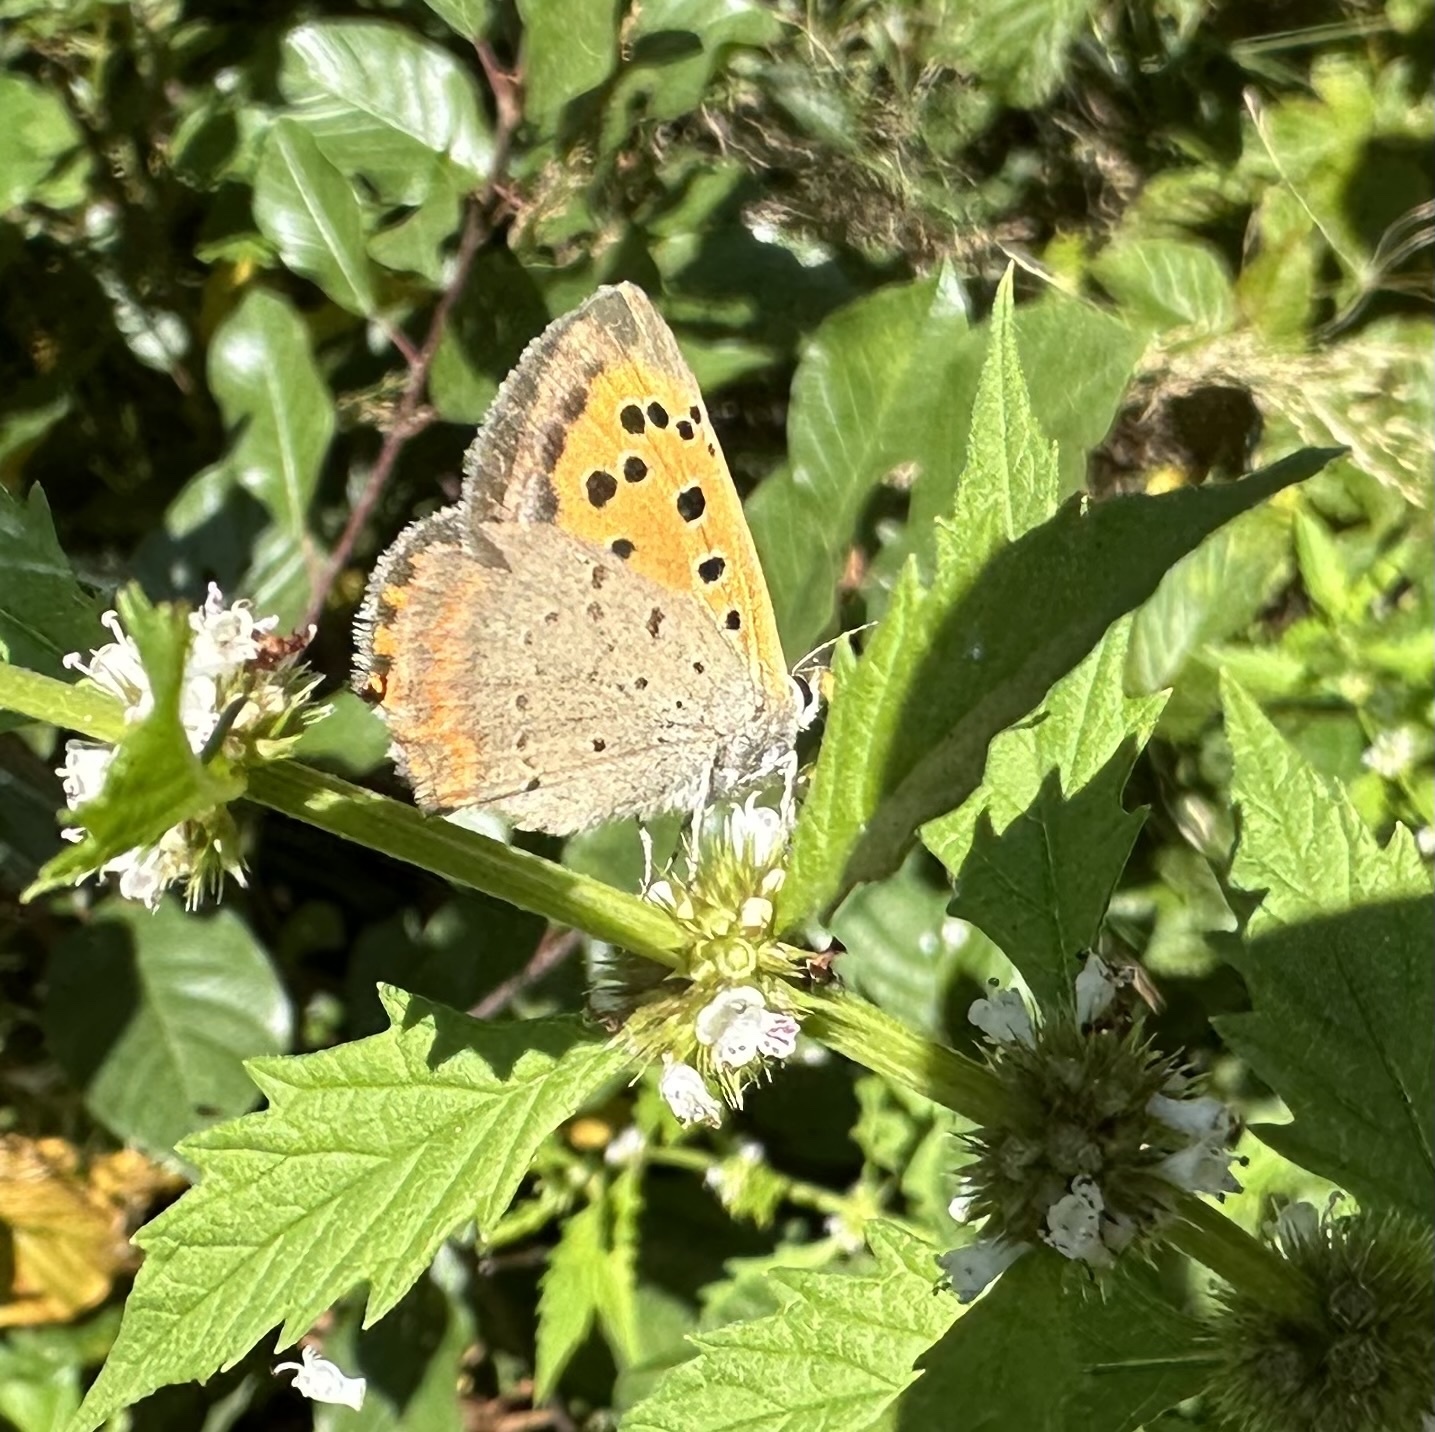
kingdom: Animalia
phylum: Arthropoda
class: Insecta
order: Lepidoptera
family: Lycaenidae
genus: Lycaena
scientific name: Lycaena phlaeas
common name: Small copper
